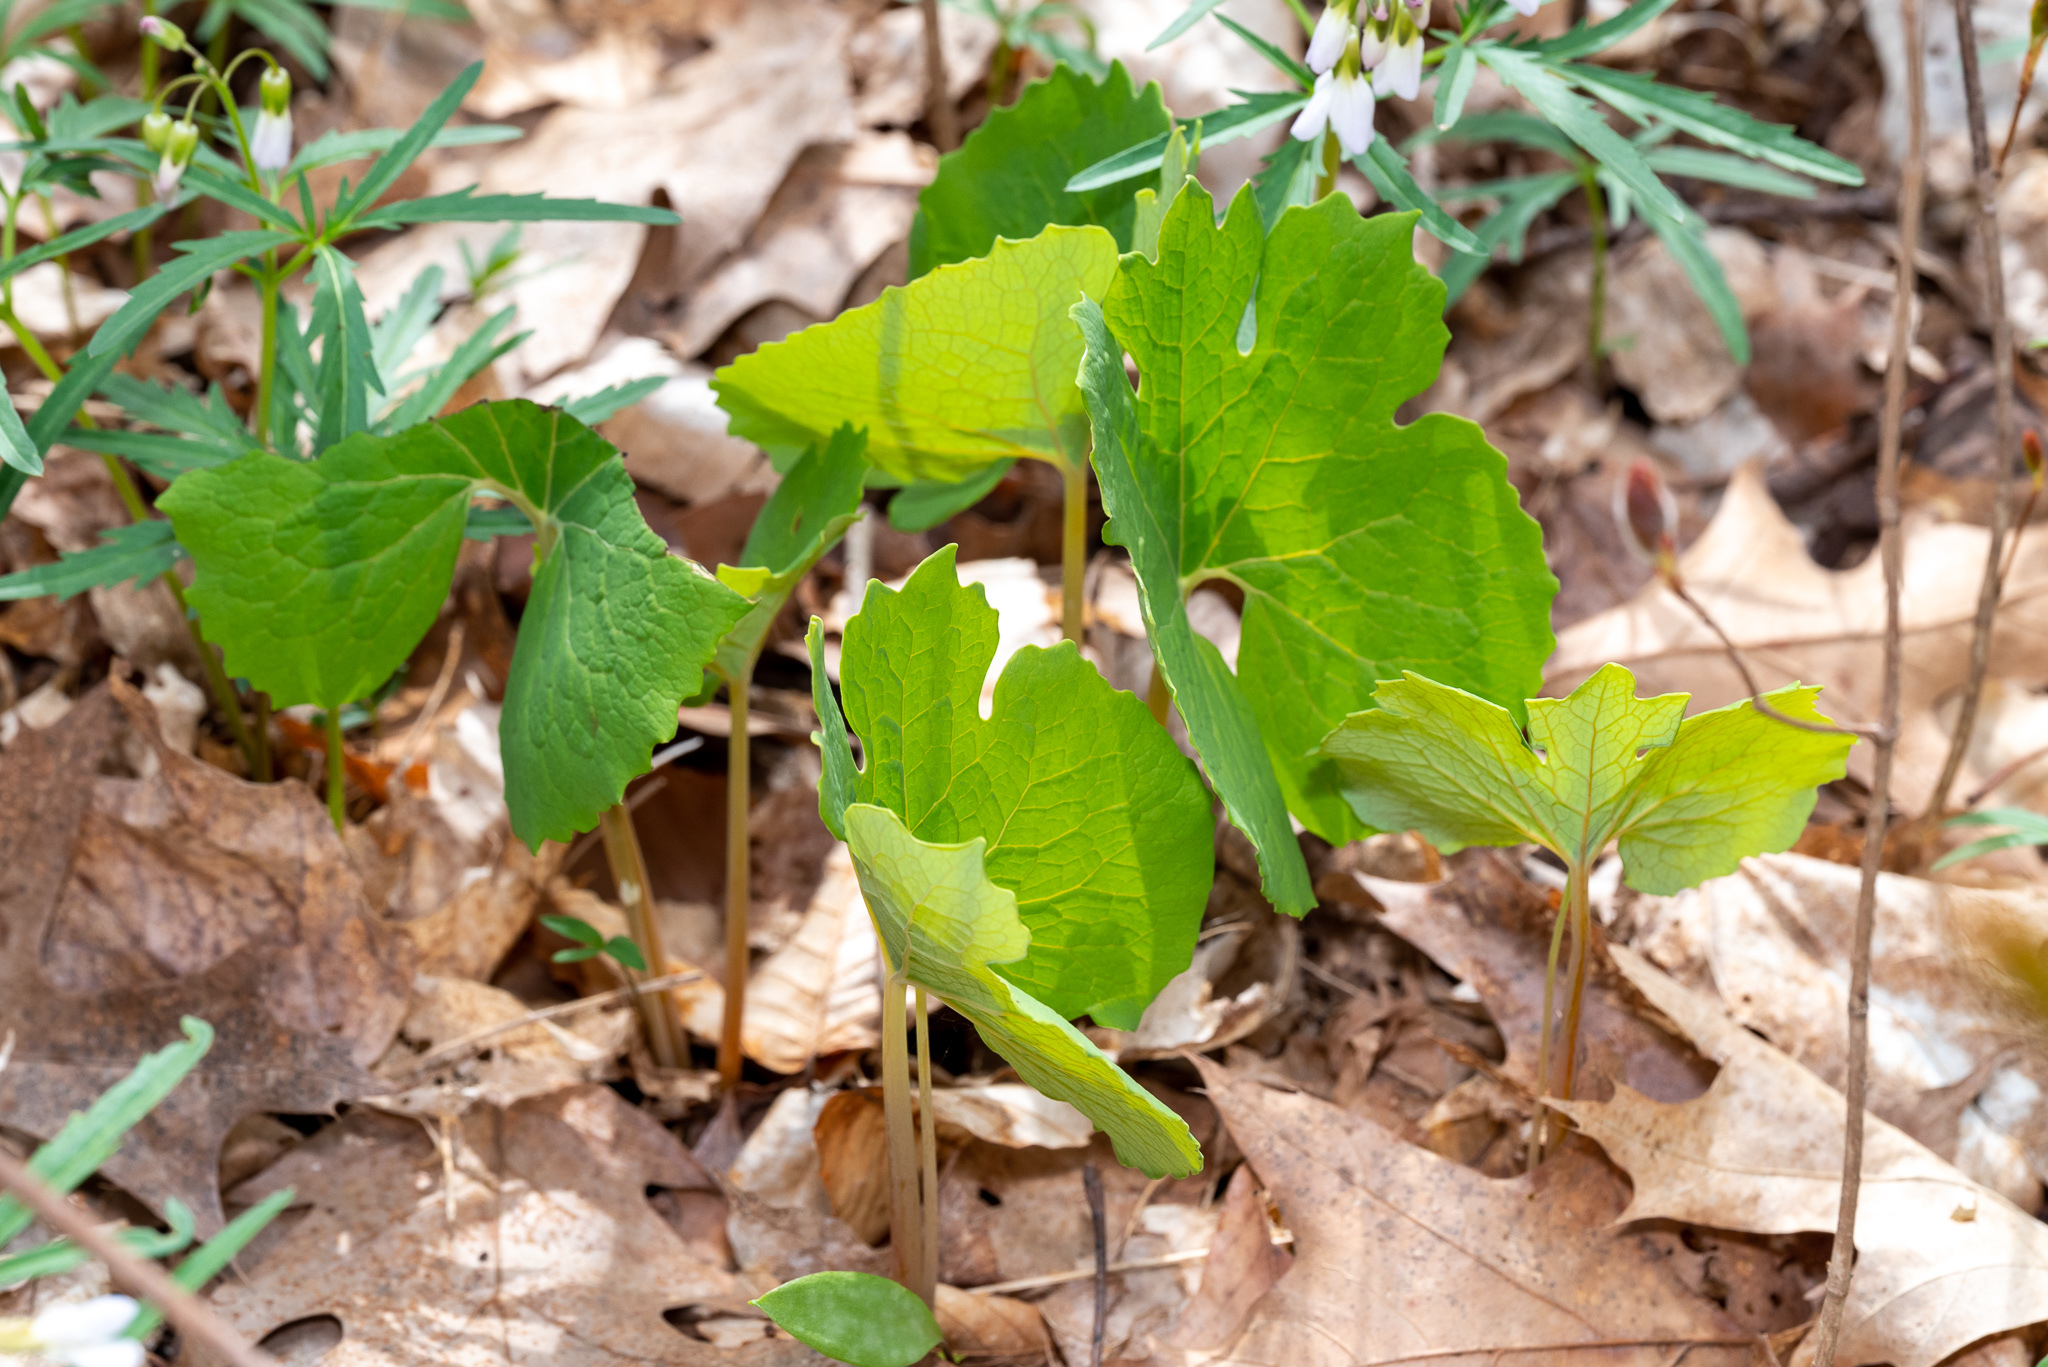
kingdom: Plantae
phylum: Tracheophyta
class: Magnoliopsida
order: Ranunculales
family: Papaveraceae
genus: Sanguinaria
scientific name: Sanguinaria canadensis
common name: Bloodroot
